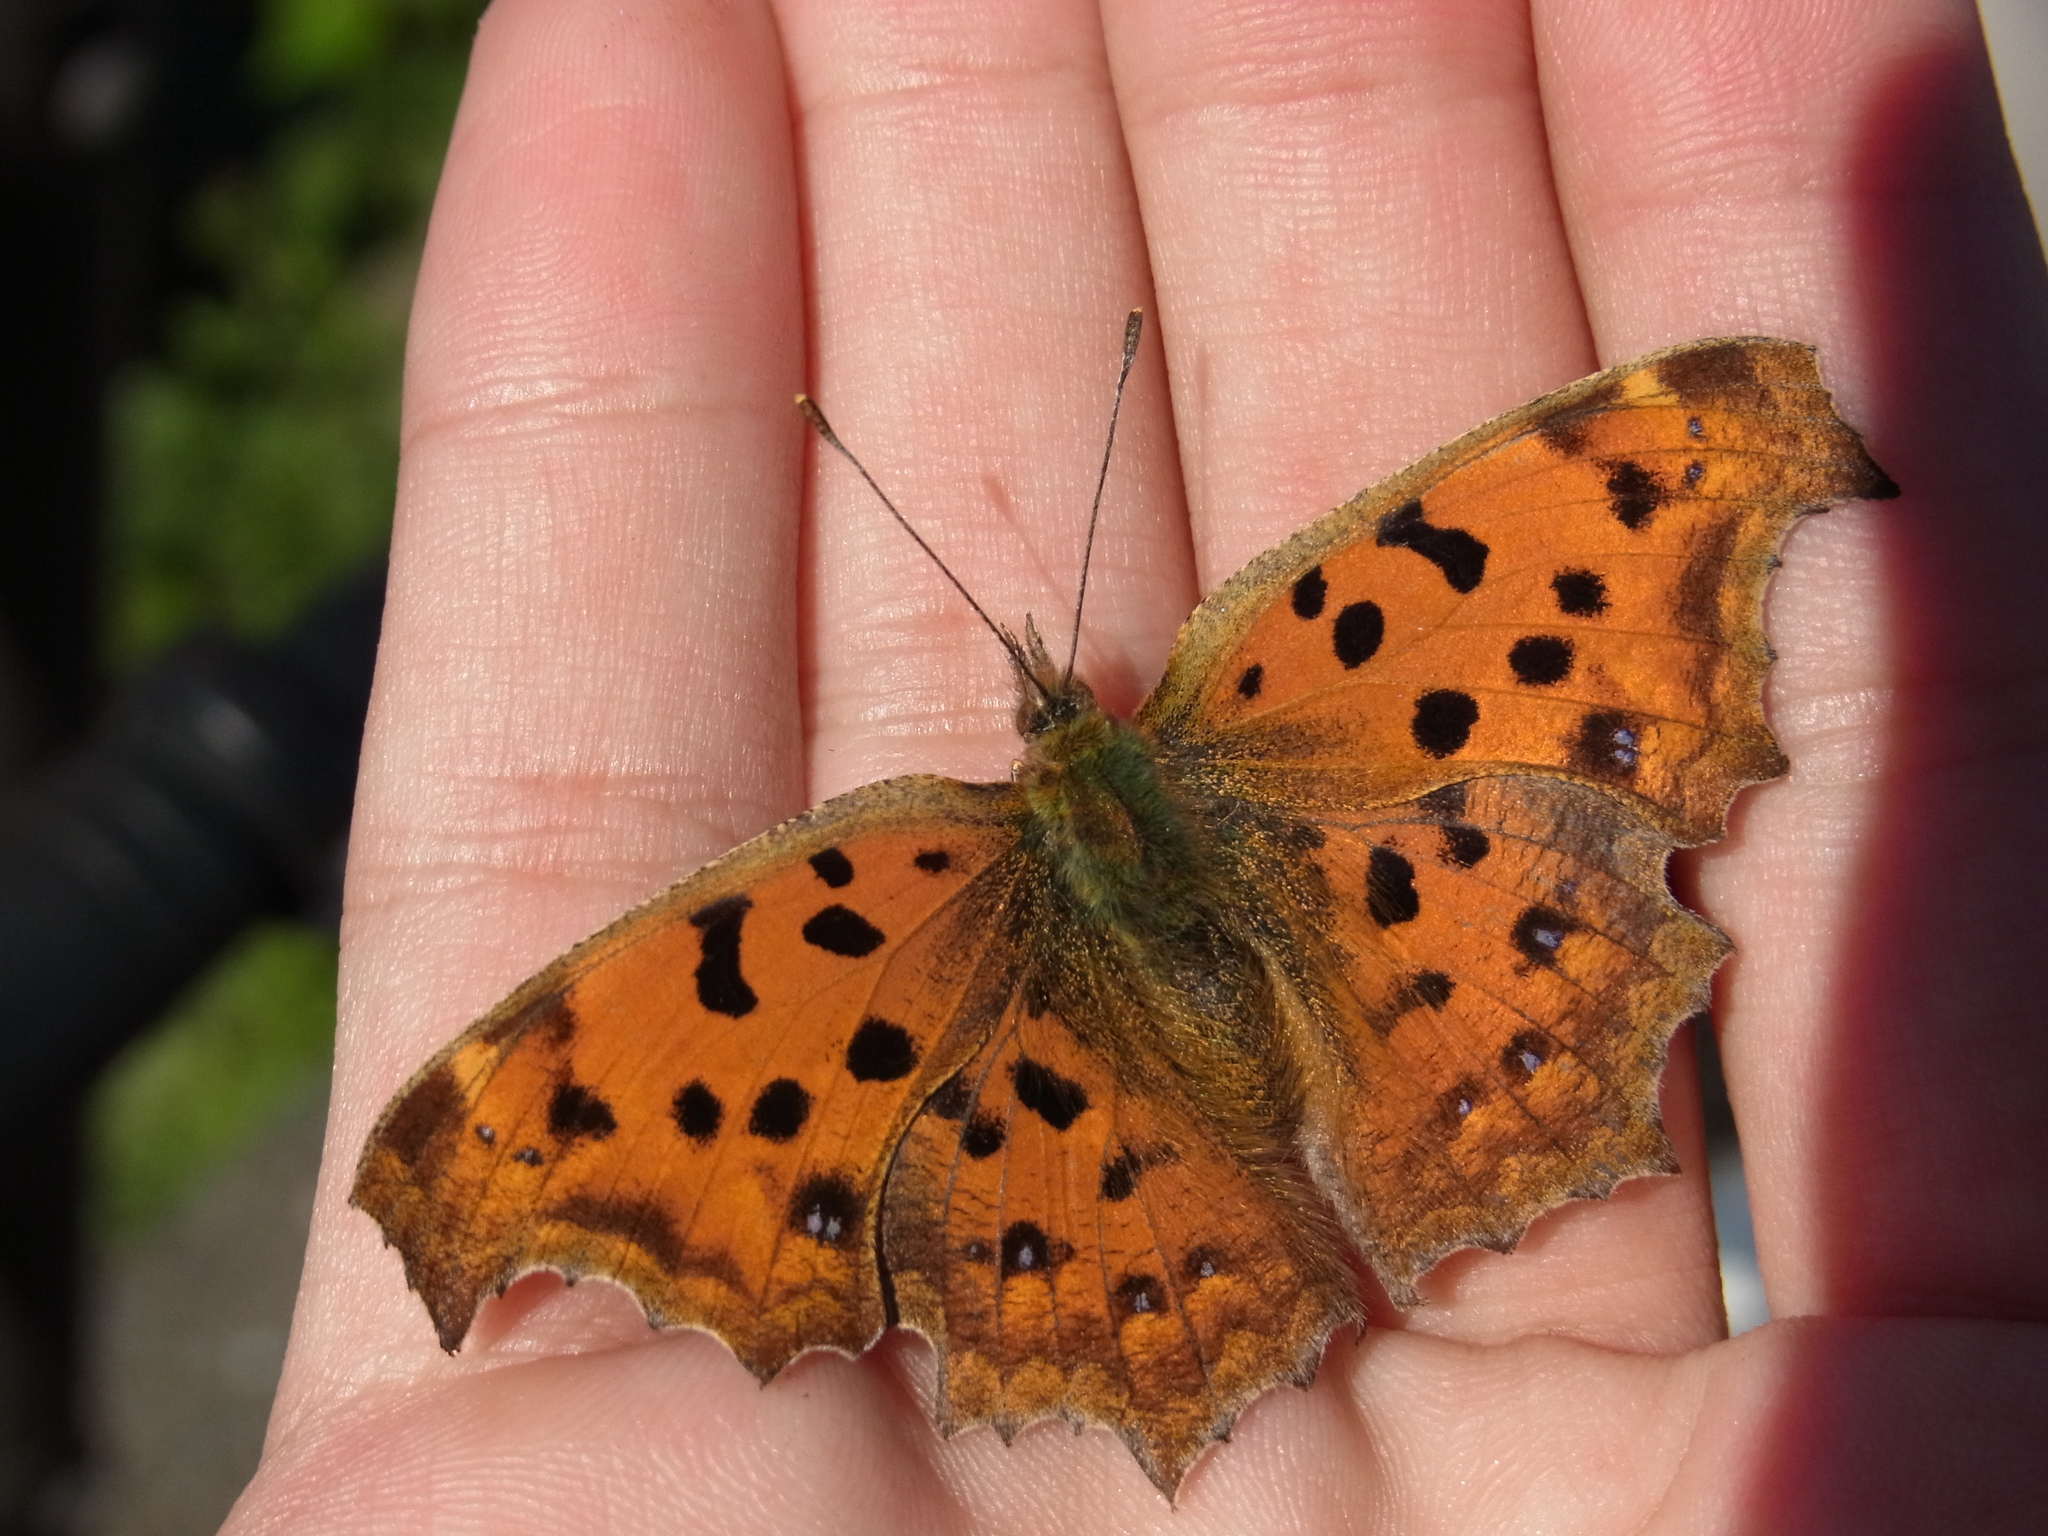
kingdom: Animalia
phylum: Arthropoda
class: Insecta
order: Lepidoptera
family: Nymphalidae
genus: Polygonia
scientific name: Polygonia c-aureum
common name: Asian comma
